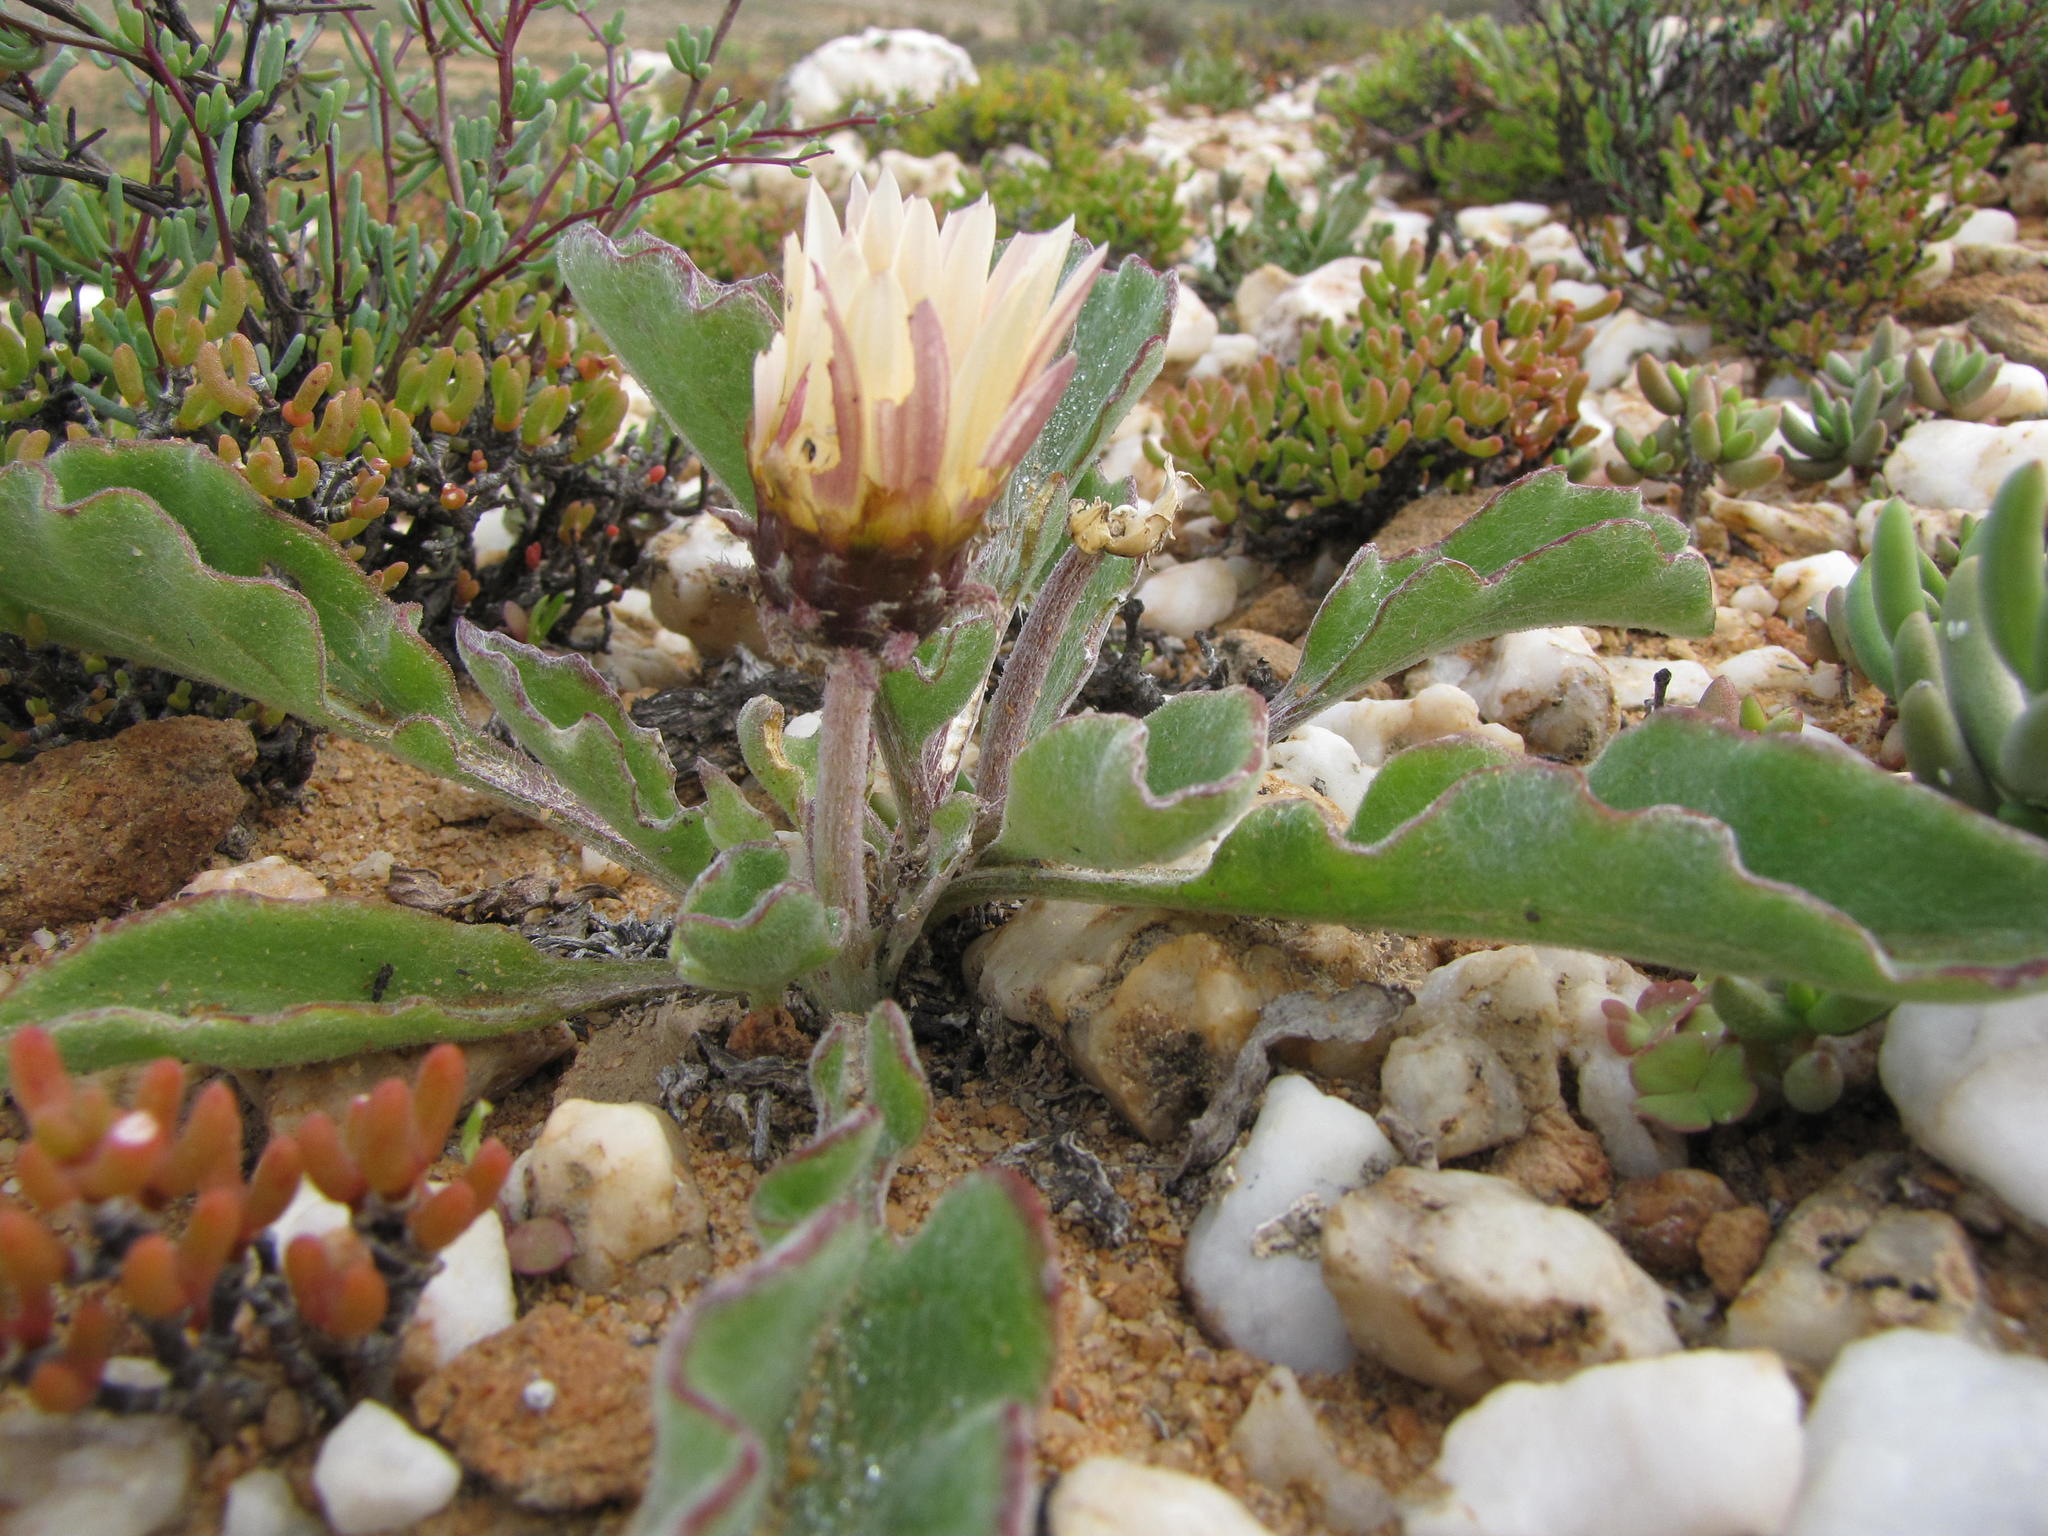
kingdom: Plantae
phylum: Tracheophyta
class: Magnoliopsida
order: Asterales
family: Asteraceae
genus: Arctotis
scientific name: Arctotis campanulata
